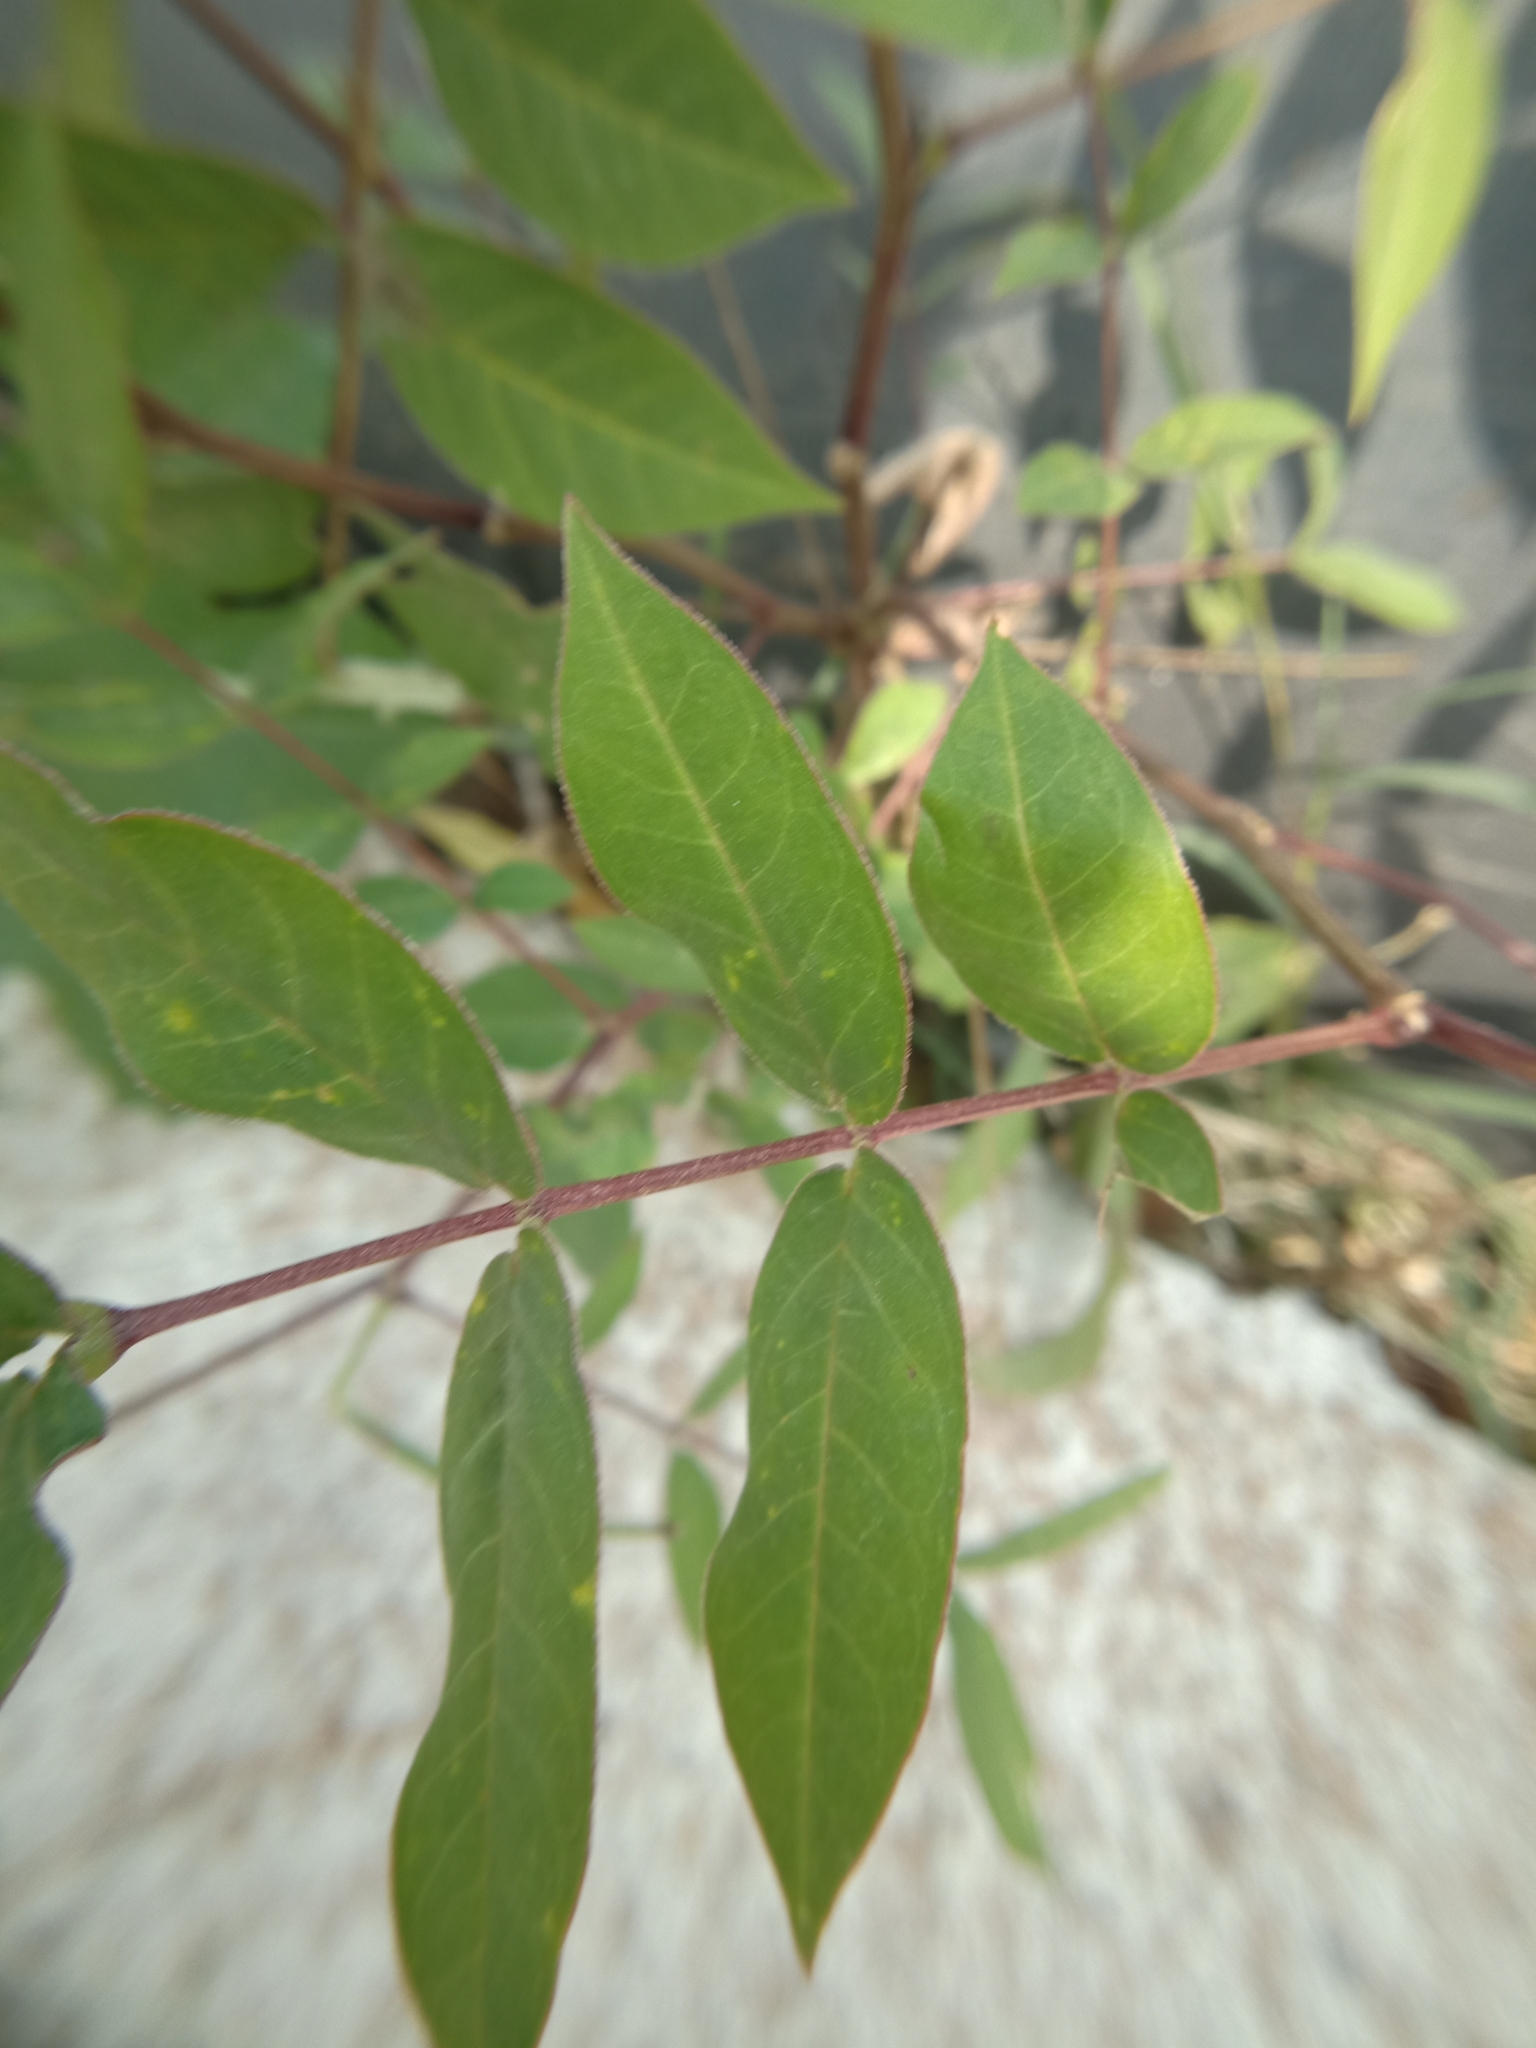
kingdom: Plantae
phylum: Tracheophyta
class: Magnoliopsida
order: Fabales
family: Fabaceae
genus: Senna
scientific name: Senna occidentalis
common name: Septicweed
